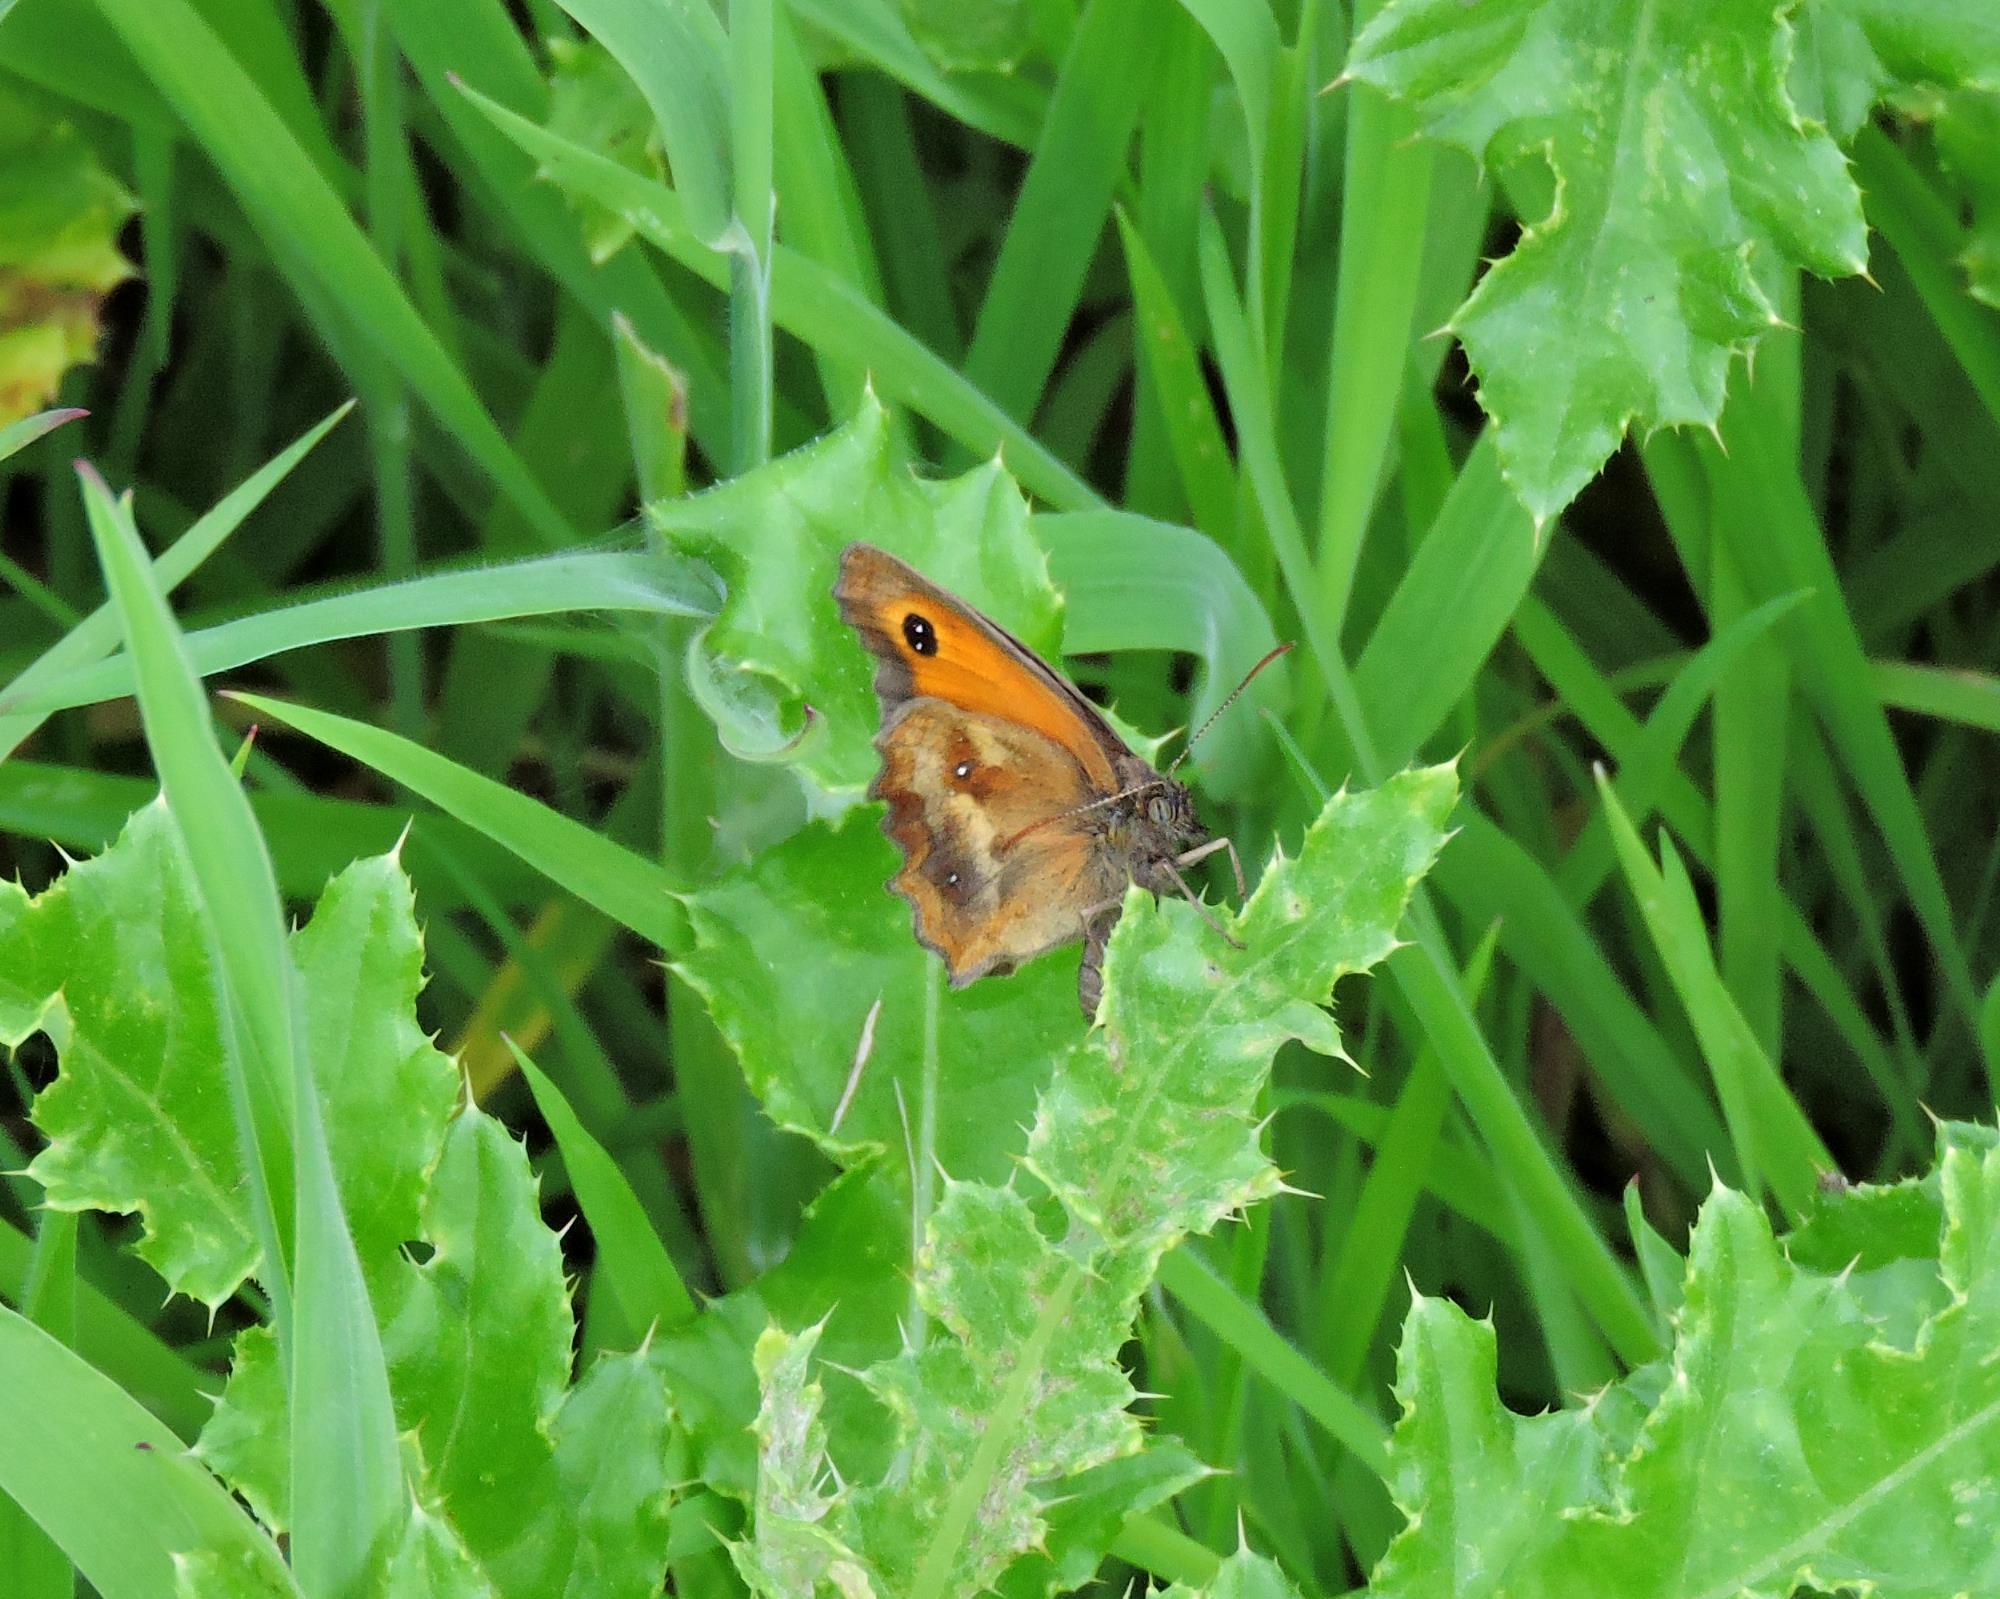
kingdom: Animalia
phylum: Arthropoda
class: Insecta
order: Lepidoptera
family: Nymphalidae
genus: Pyronia
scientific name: Pyronia tithonus
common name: Gatekeeper
